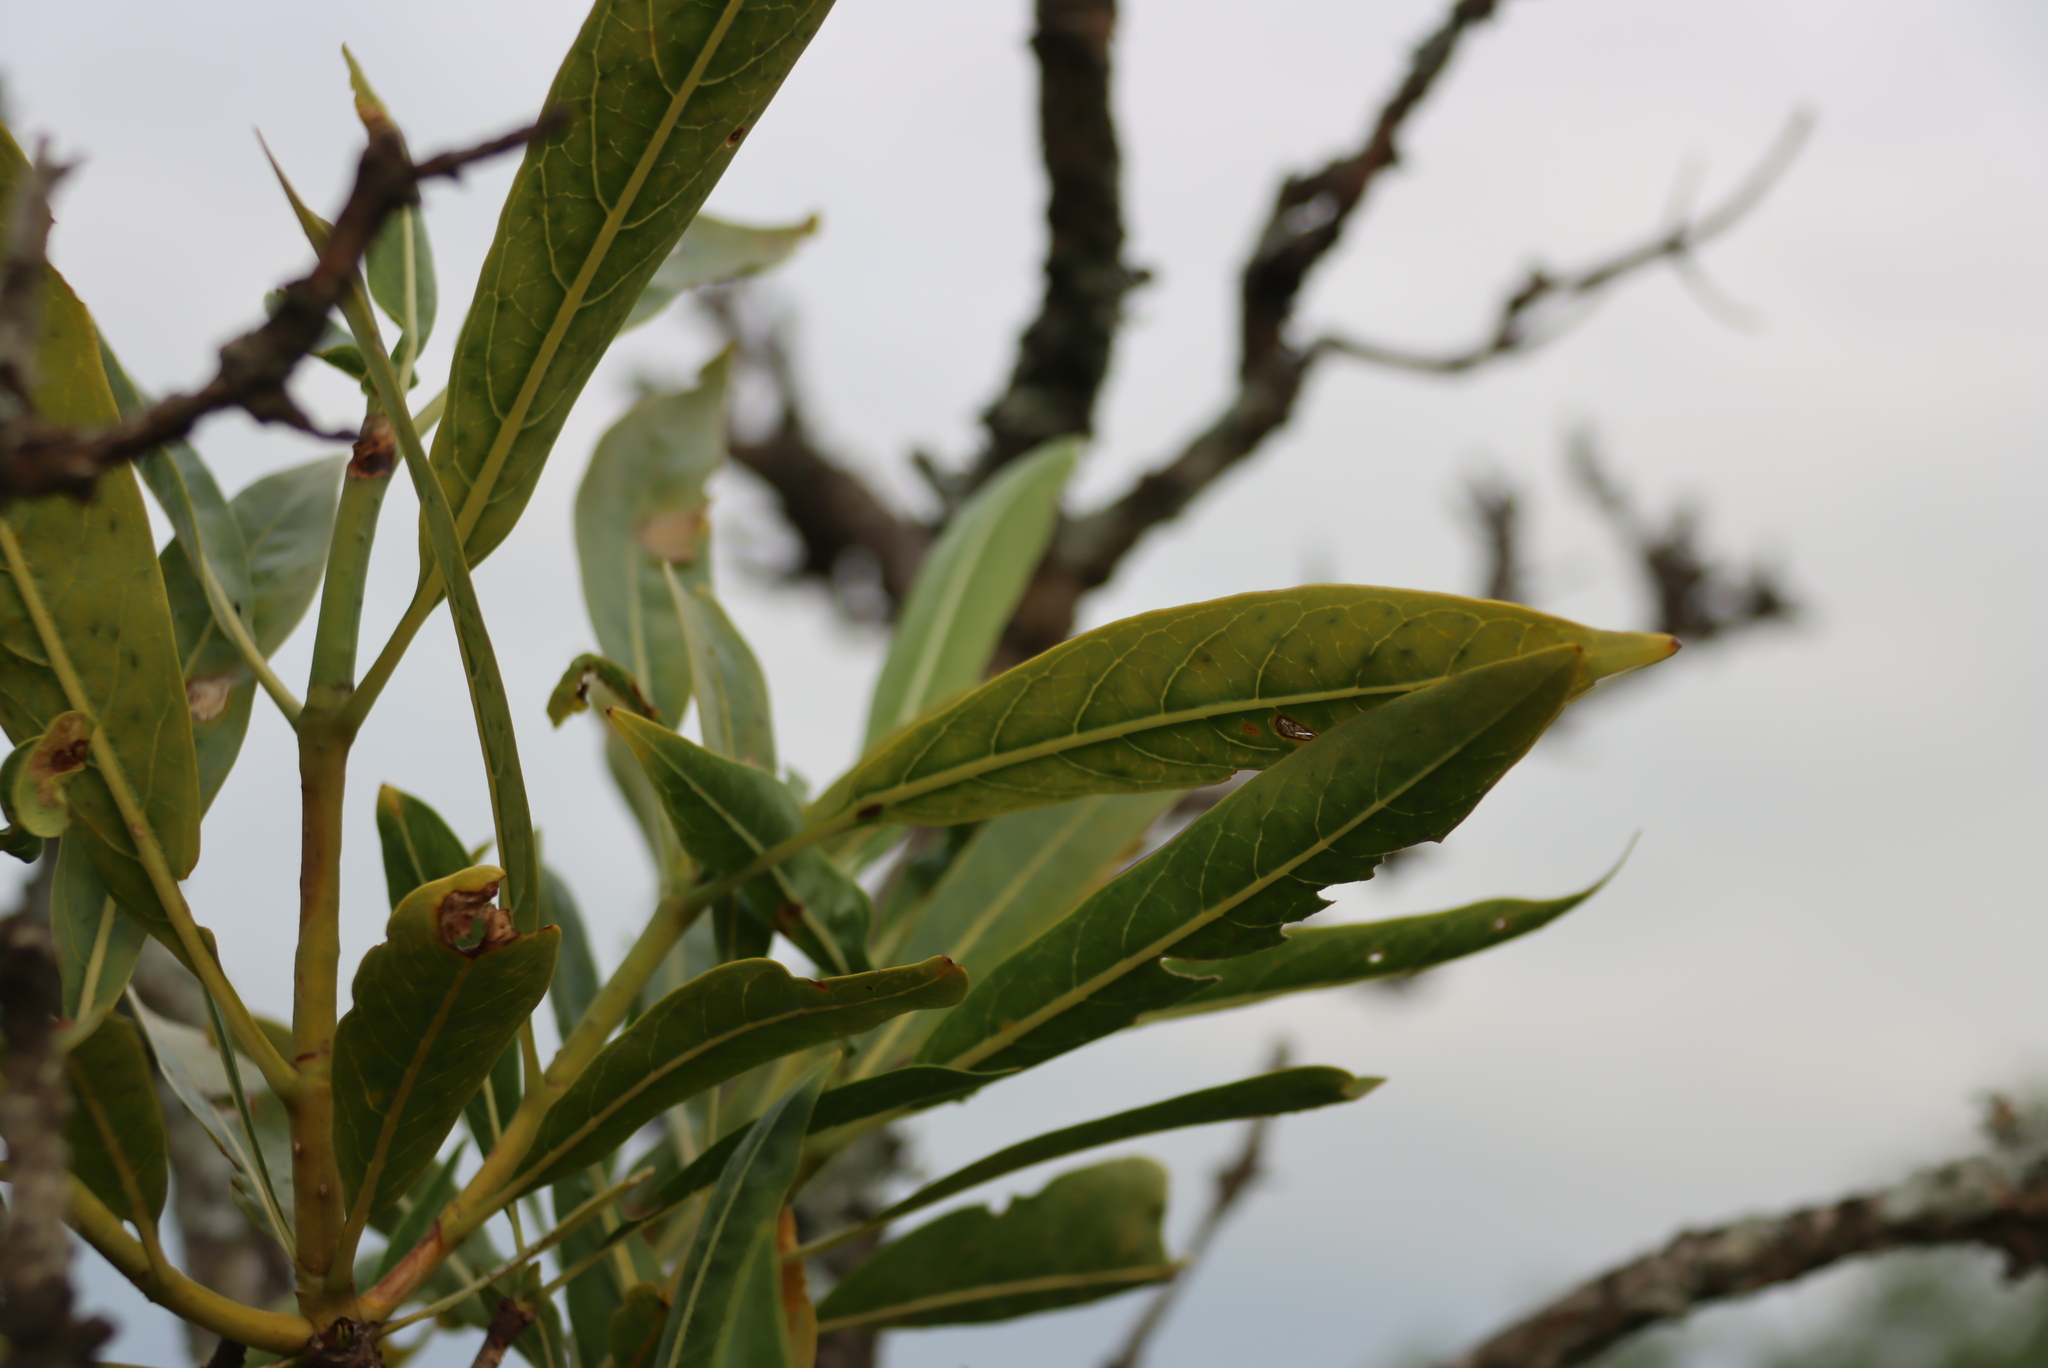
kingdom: Plantae
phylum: Tracheophyta
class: Magnoliopsida
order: Gentianales
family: Rubiaceae
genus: Pavetta
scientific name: Pavetta edentula
